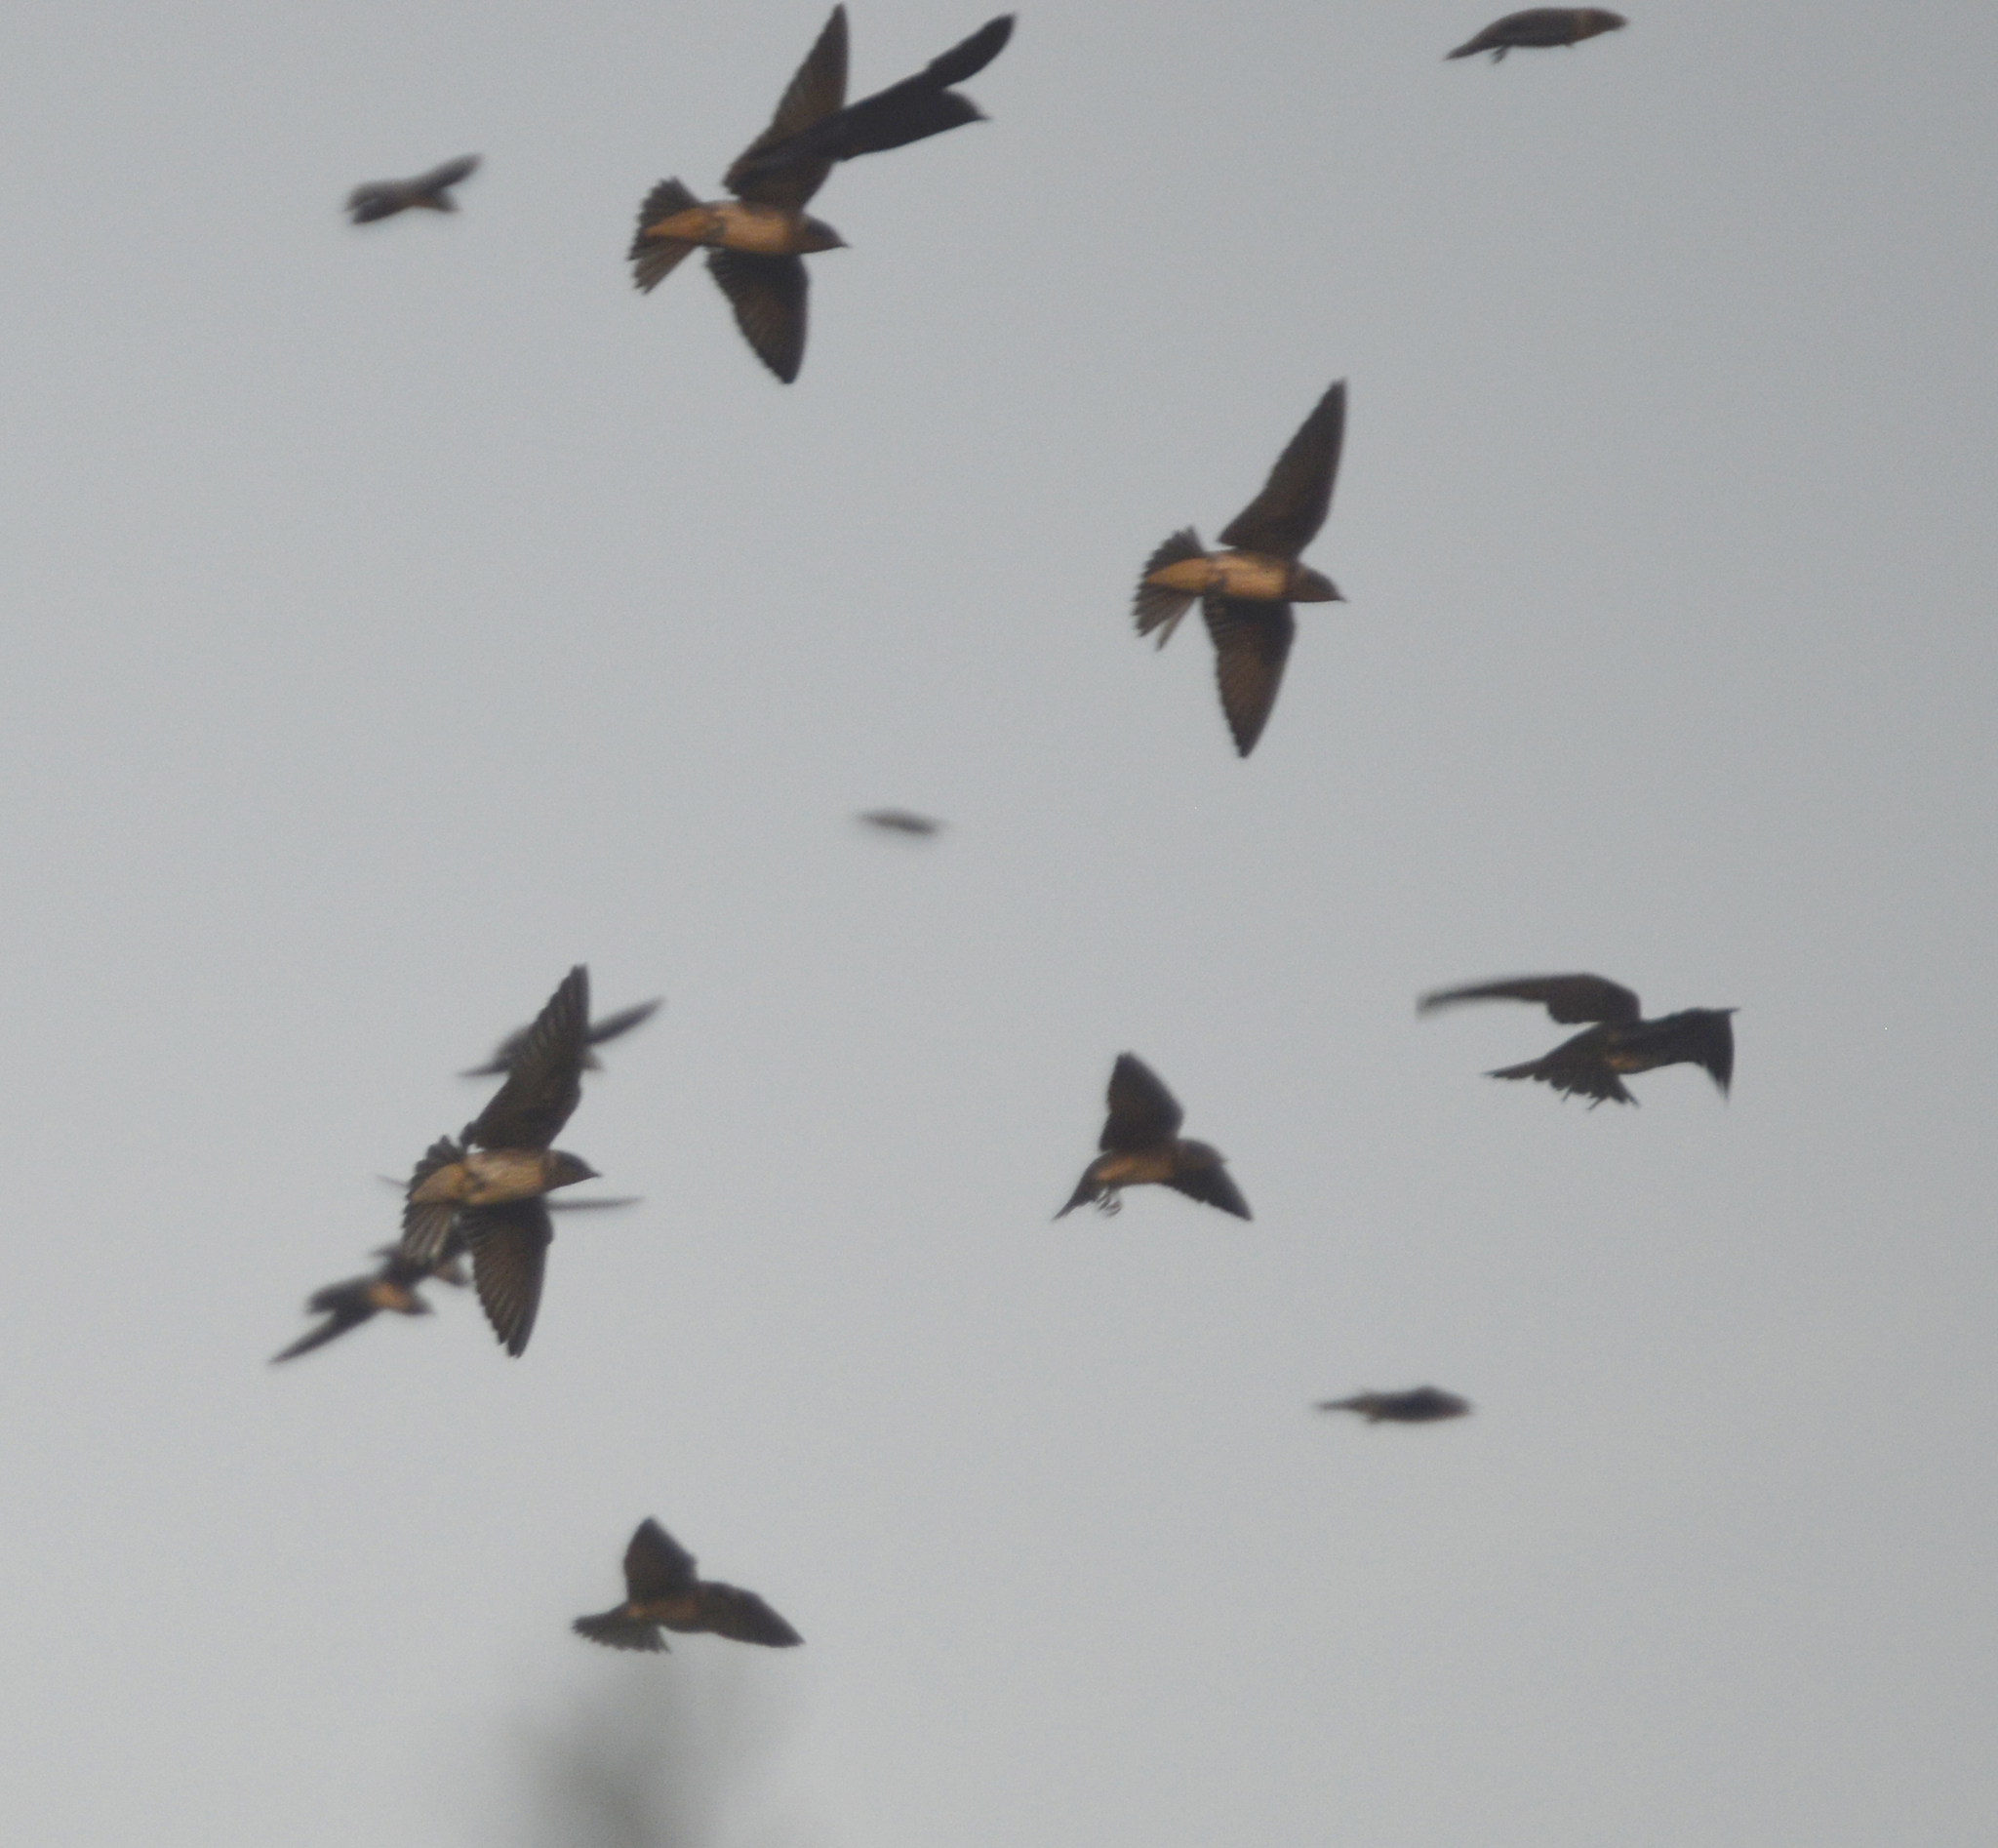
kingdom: Animalia
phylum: Chordata
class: Aves
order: Passeriformes
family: Hirundinidae
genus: Progne
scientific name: Progne subis
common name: Purple martin
